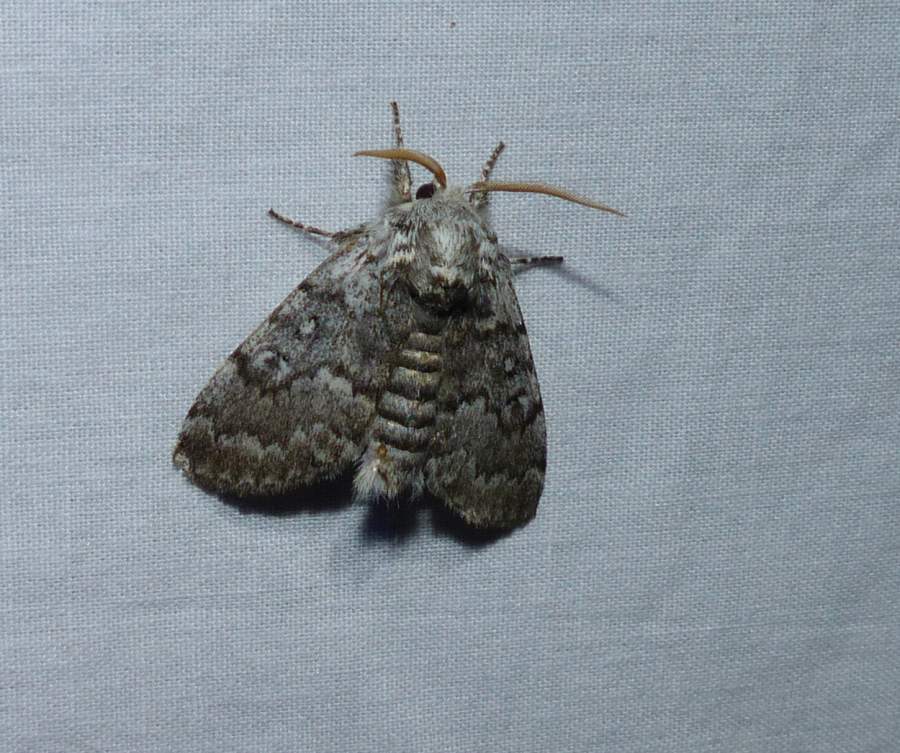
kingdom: Animalia
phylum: Arthropoda
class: Insecta
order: Lepidoptera
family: Noctuidae
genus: Colocasia
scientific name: Colocasia propinquilinea
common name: Close-banded demas
